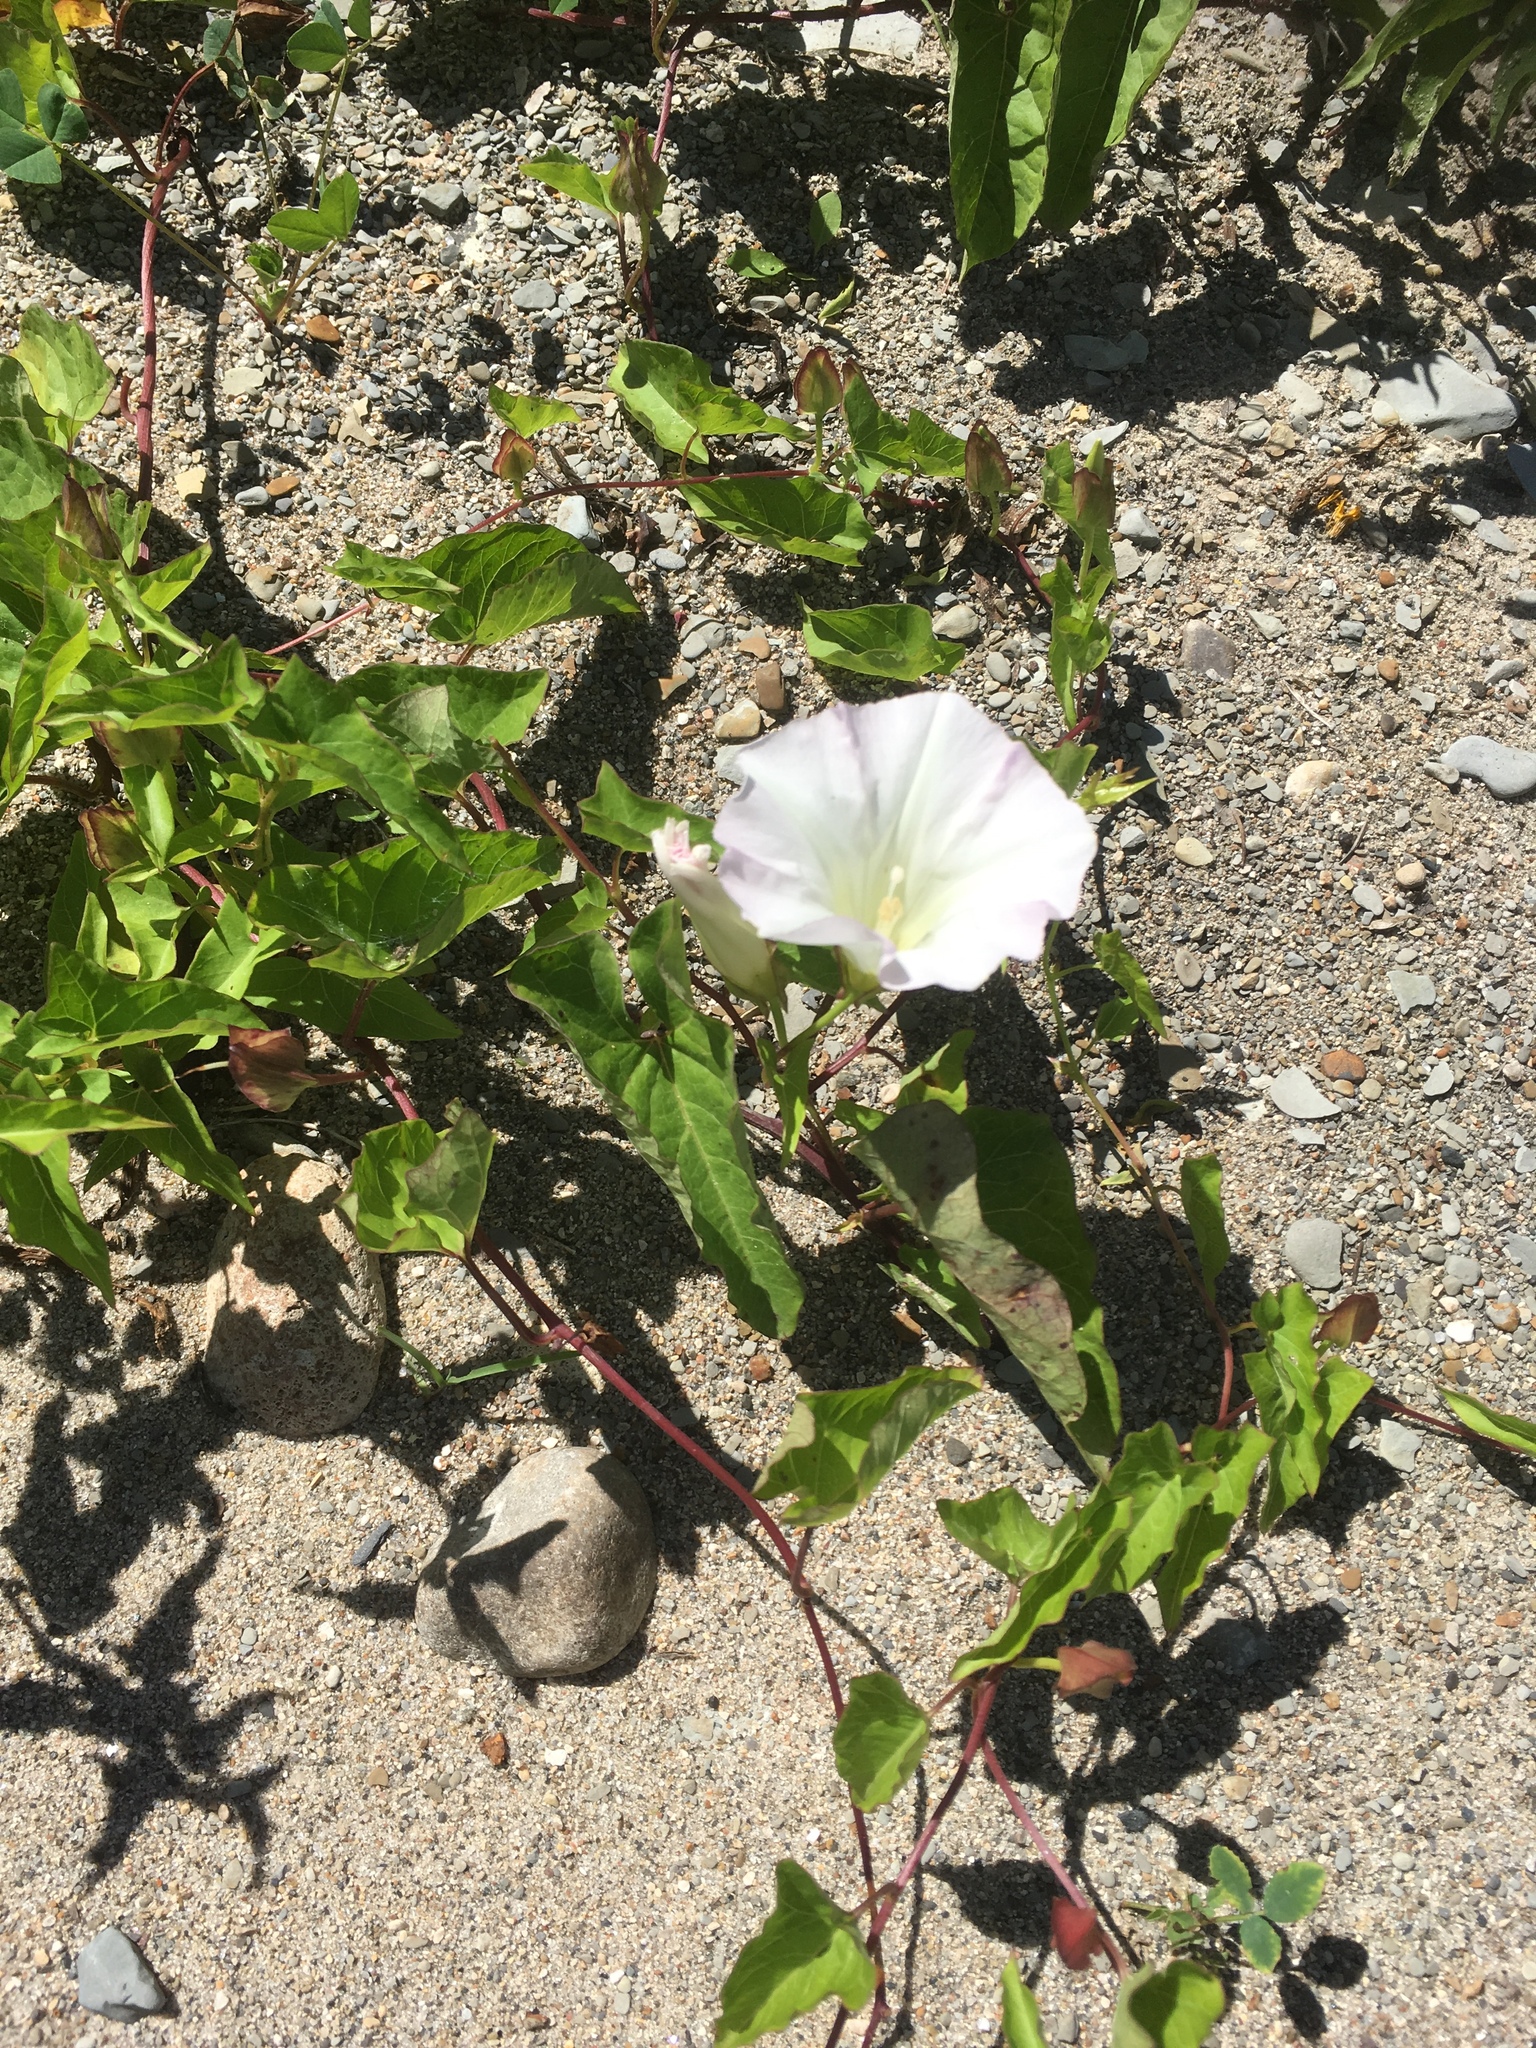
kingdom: Plantae
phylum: Tracheophyta
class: Magnoliopsida
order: Solanales
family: Convolvulaceae
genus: Calystegia
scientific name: Calystegia sepium
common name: Hedge bindweed
